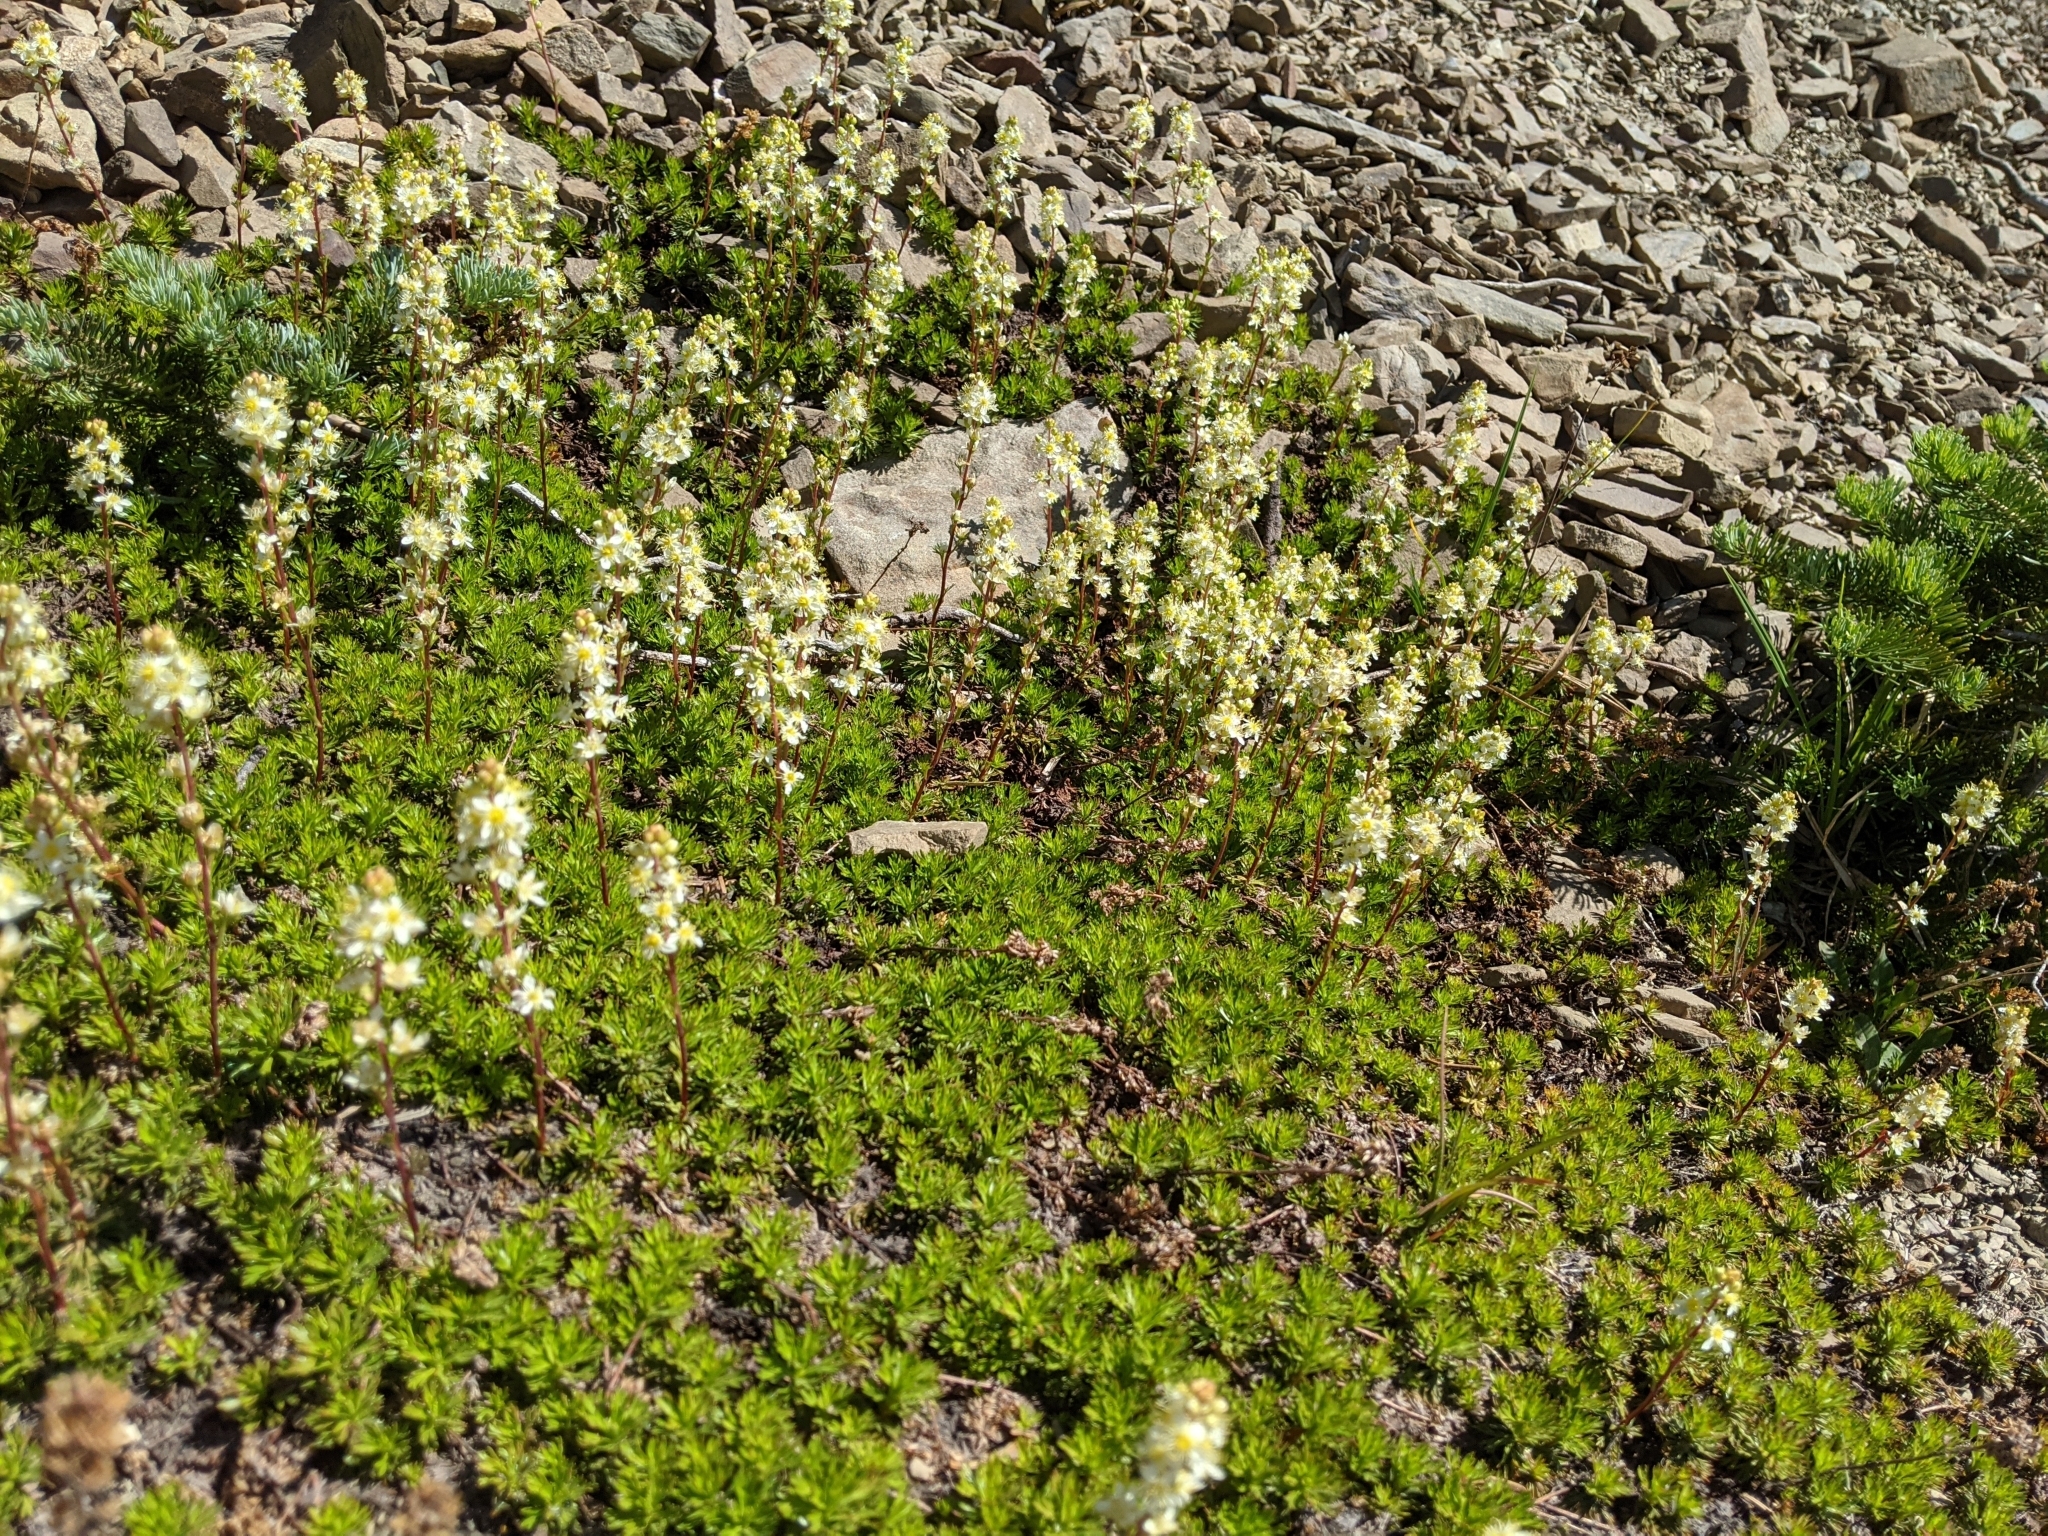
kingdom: Plantae
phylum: Tracheophyta
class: Magnoliopsida
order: Rosales
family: Rosaceae
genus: Luetkea
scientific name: Luetkea pectinata
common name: Partridgefoot
